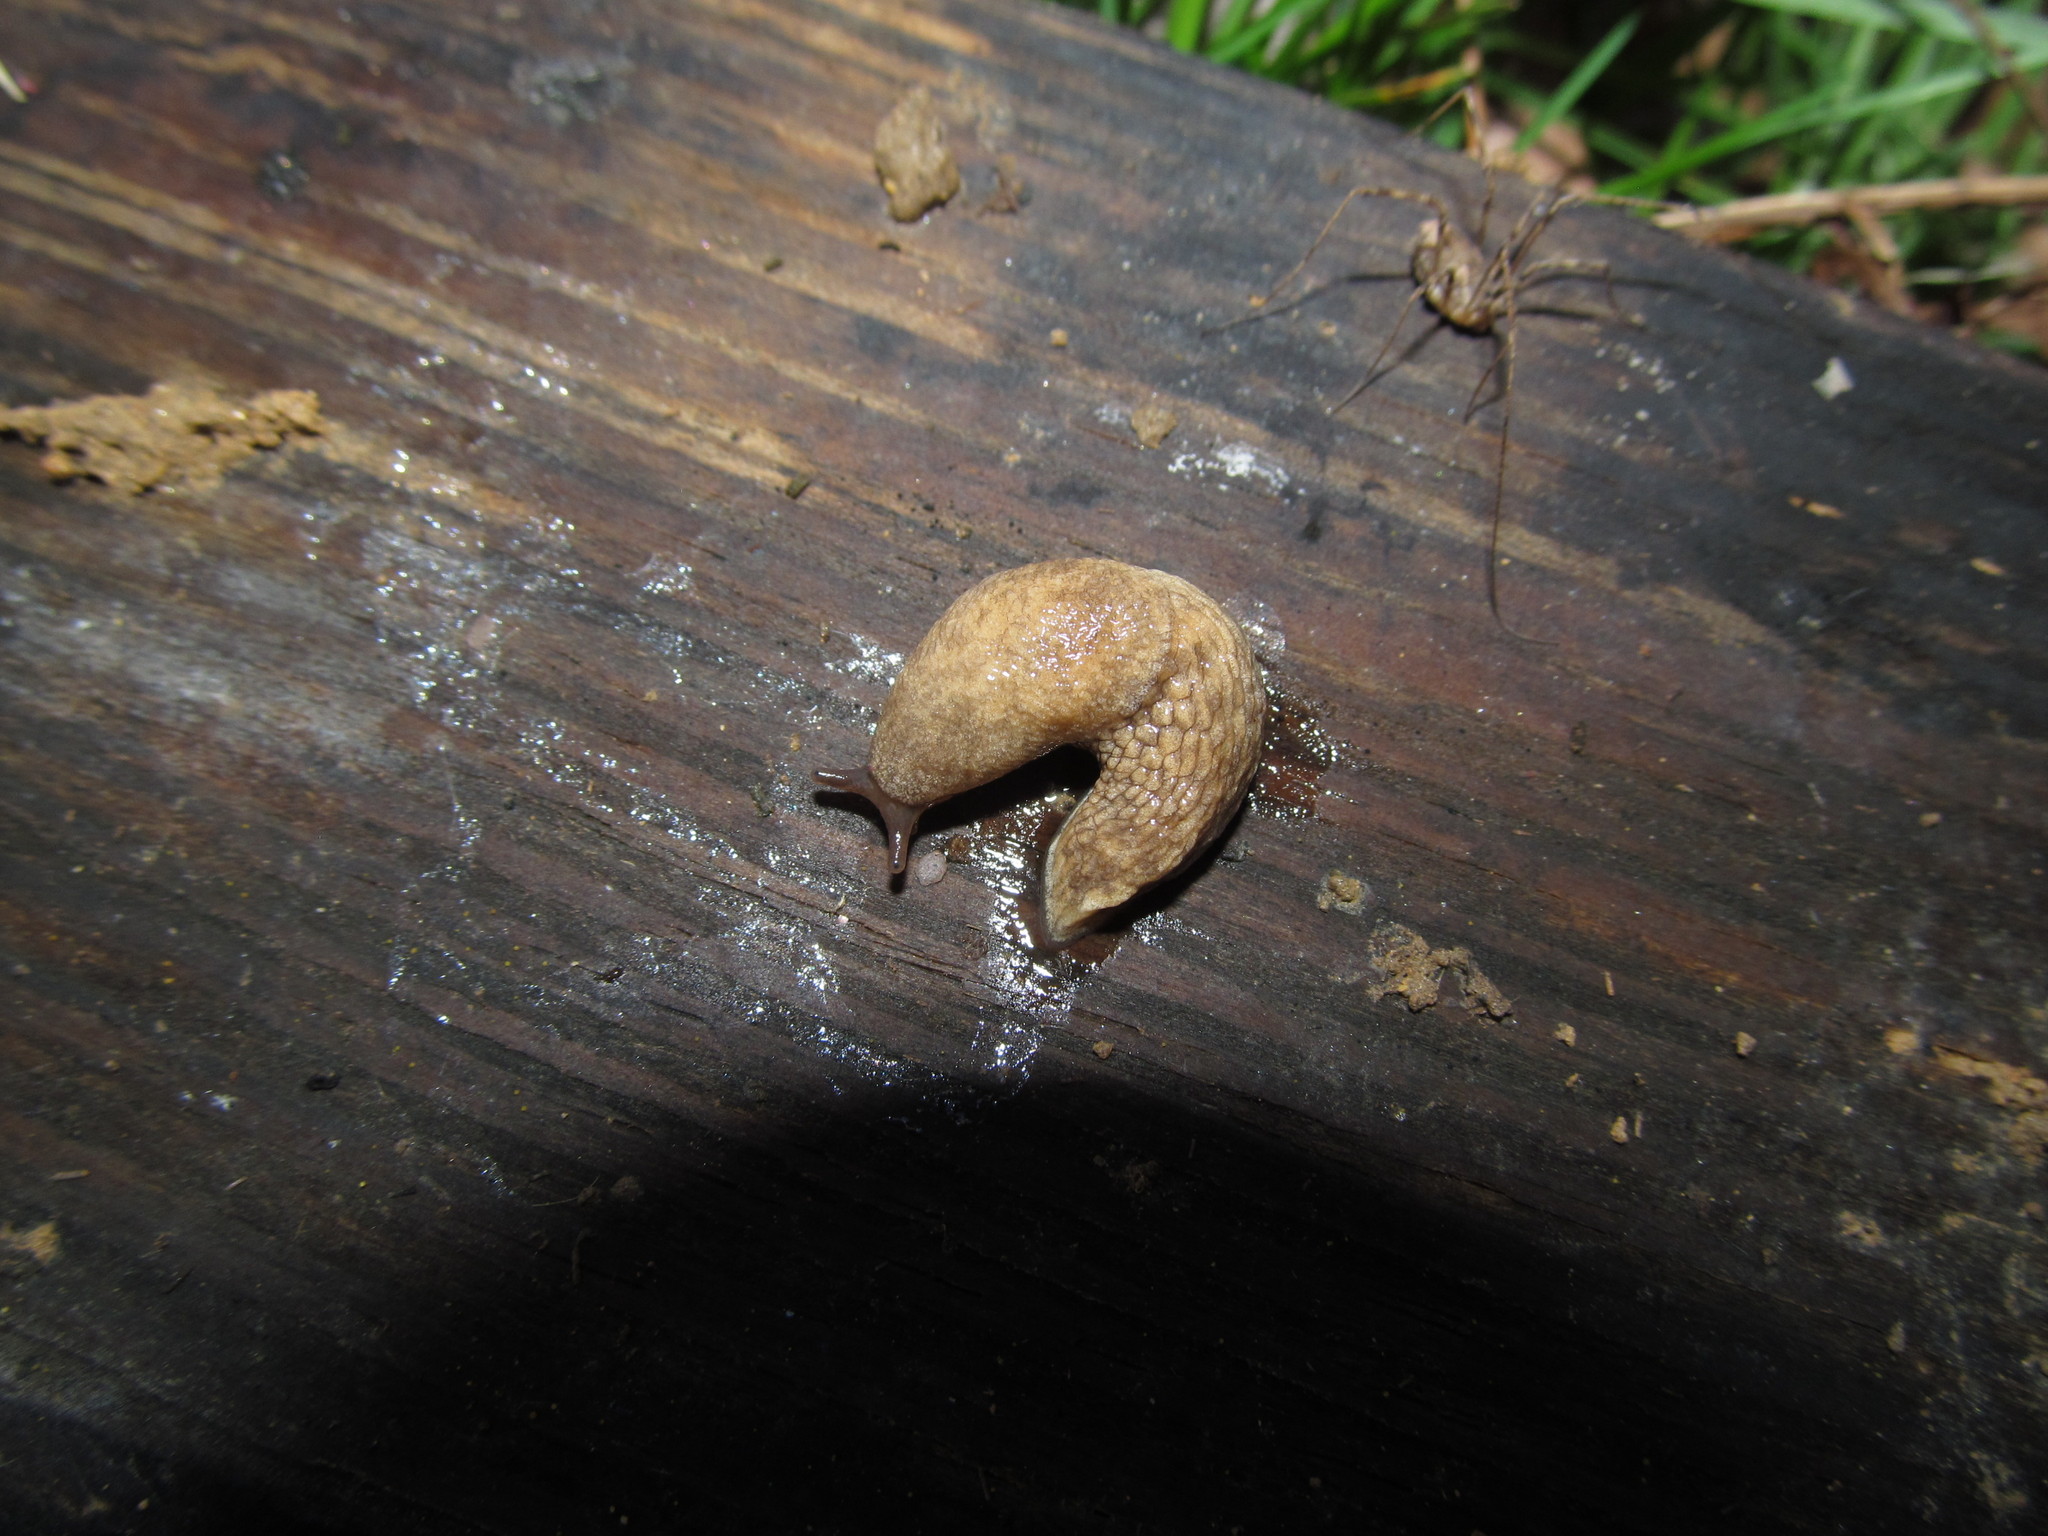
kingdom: Animalia
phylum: Mollusca
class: Gastropoda
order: Stylommatophora
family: Agriolimacidae
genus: Deroceras
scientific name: Deroceras reticulatum
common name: Gray field slug
